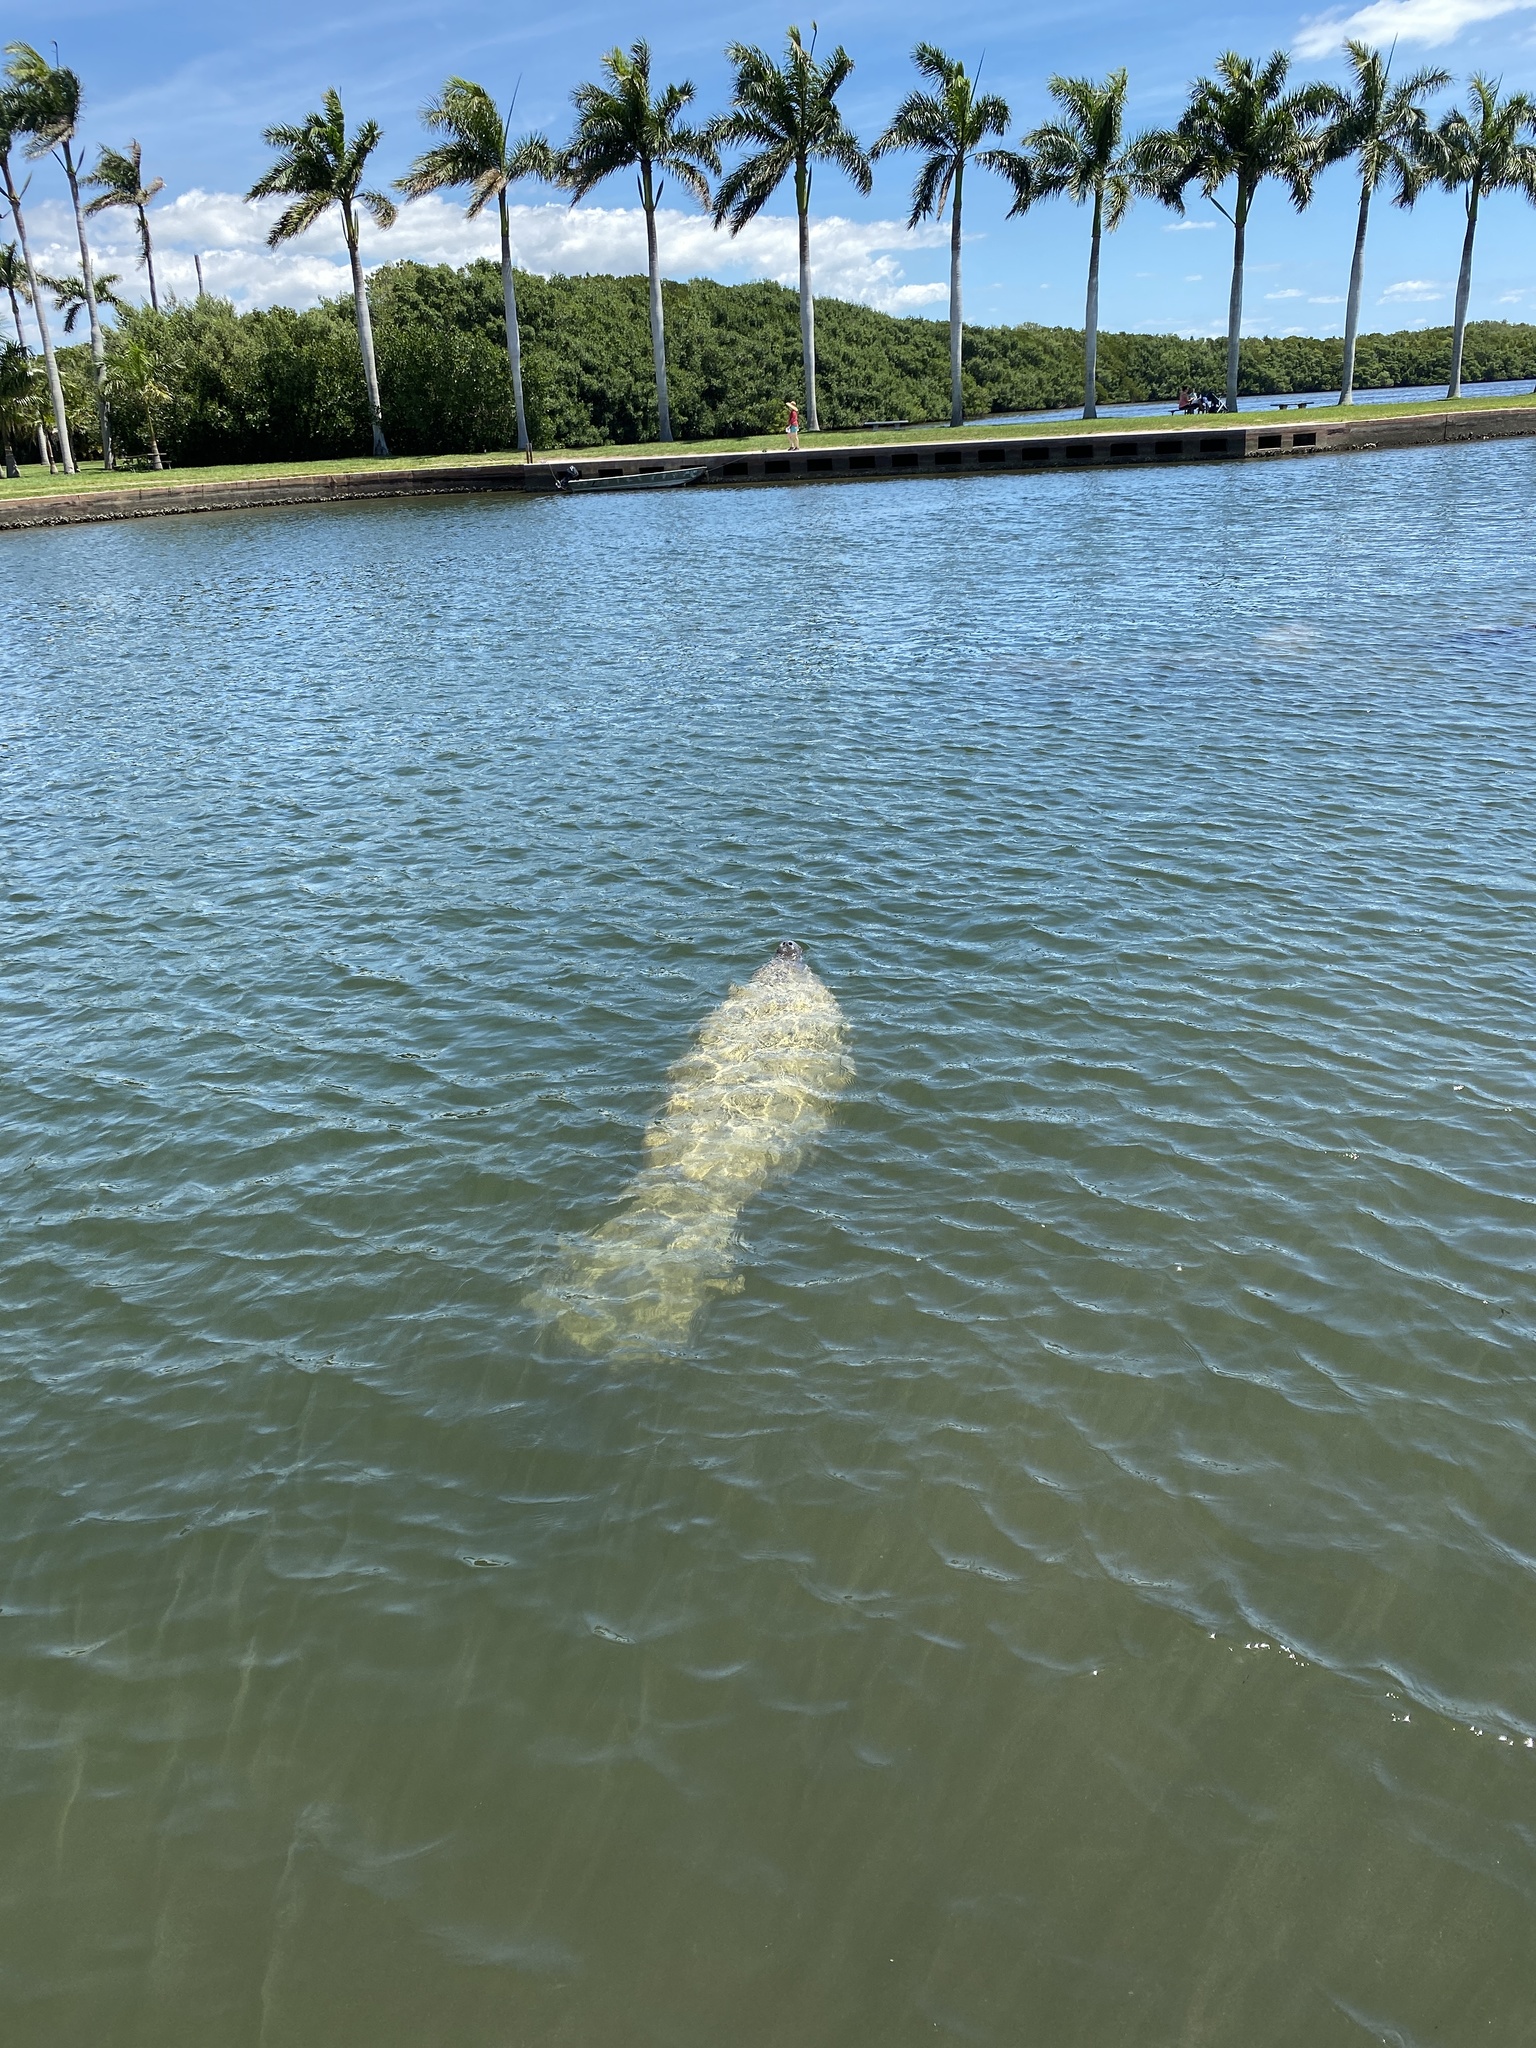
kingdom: Animalia
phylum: Chordata
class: Mammalia
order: Sirenia
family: Trichechidae
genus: Trichechus
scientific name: Trichechus manatus
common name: West indian manatee
